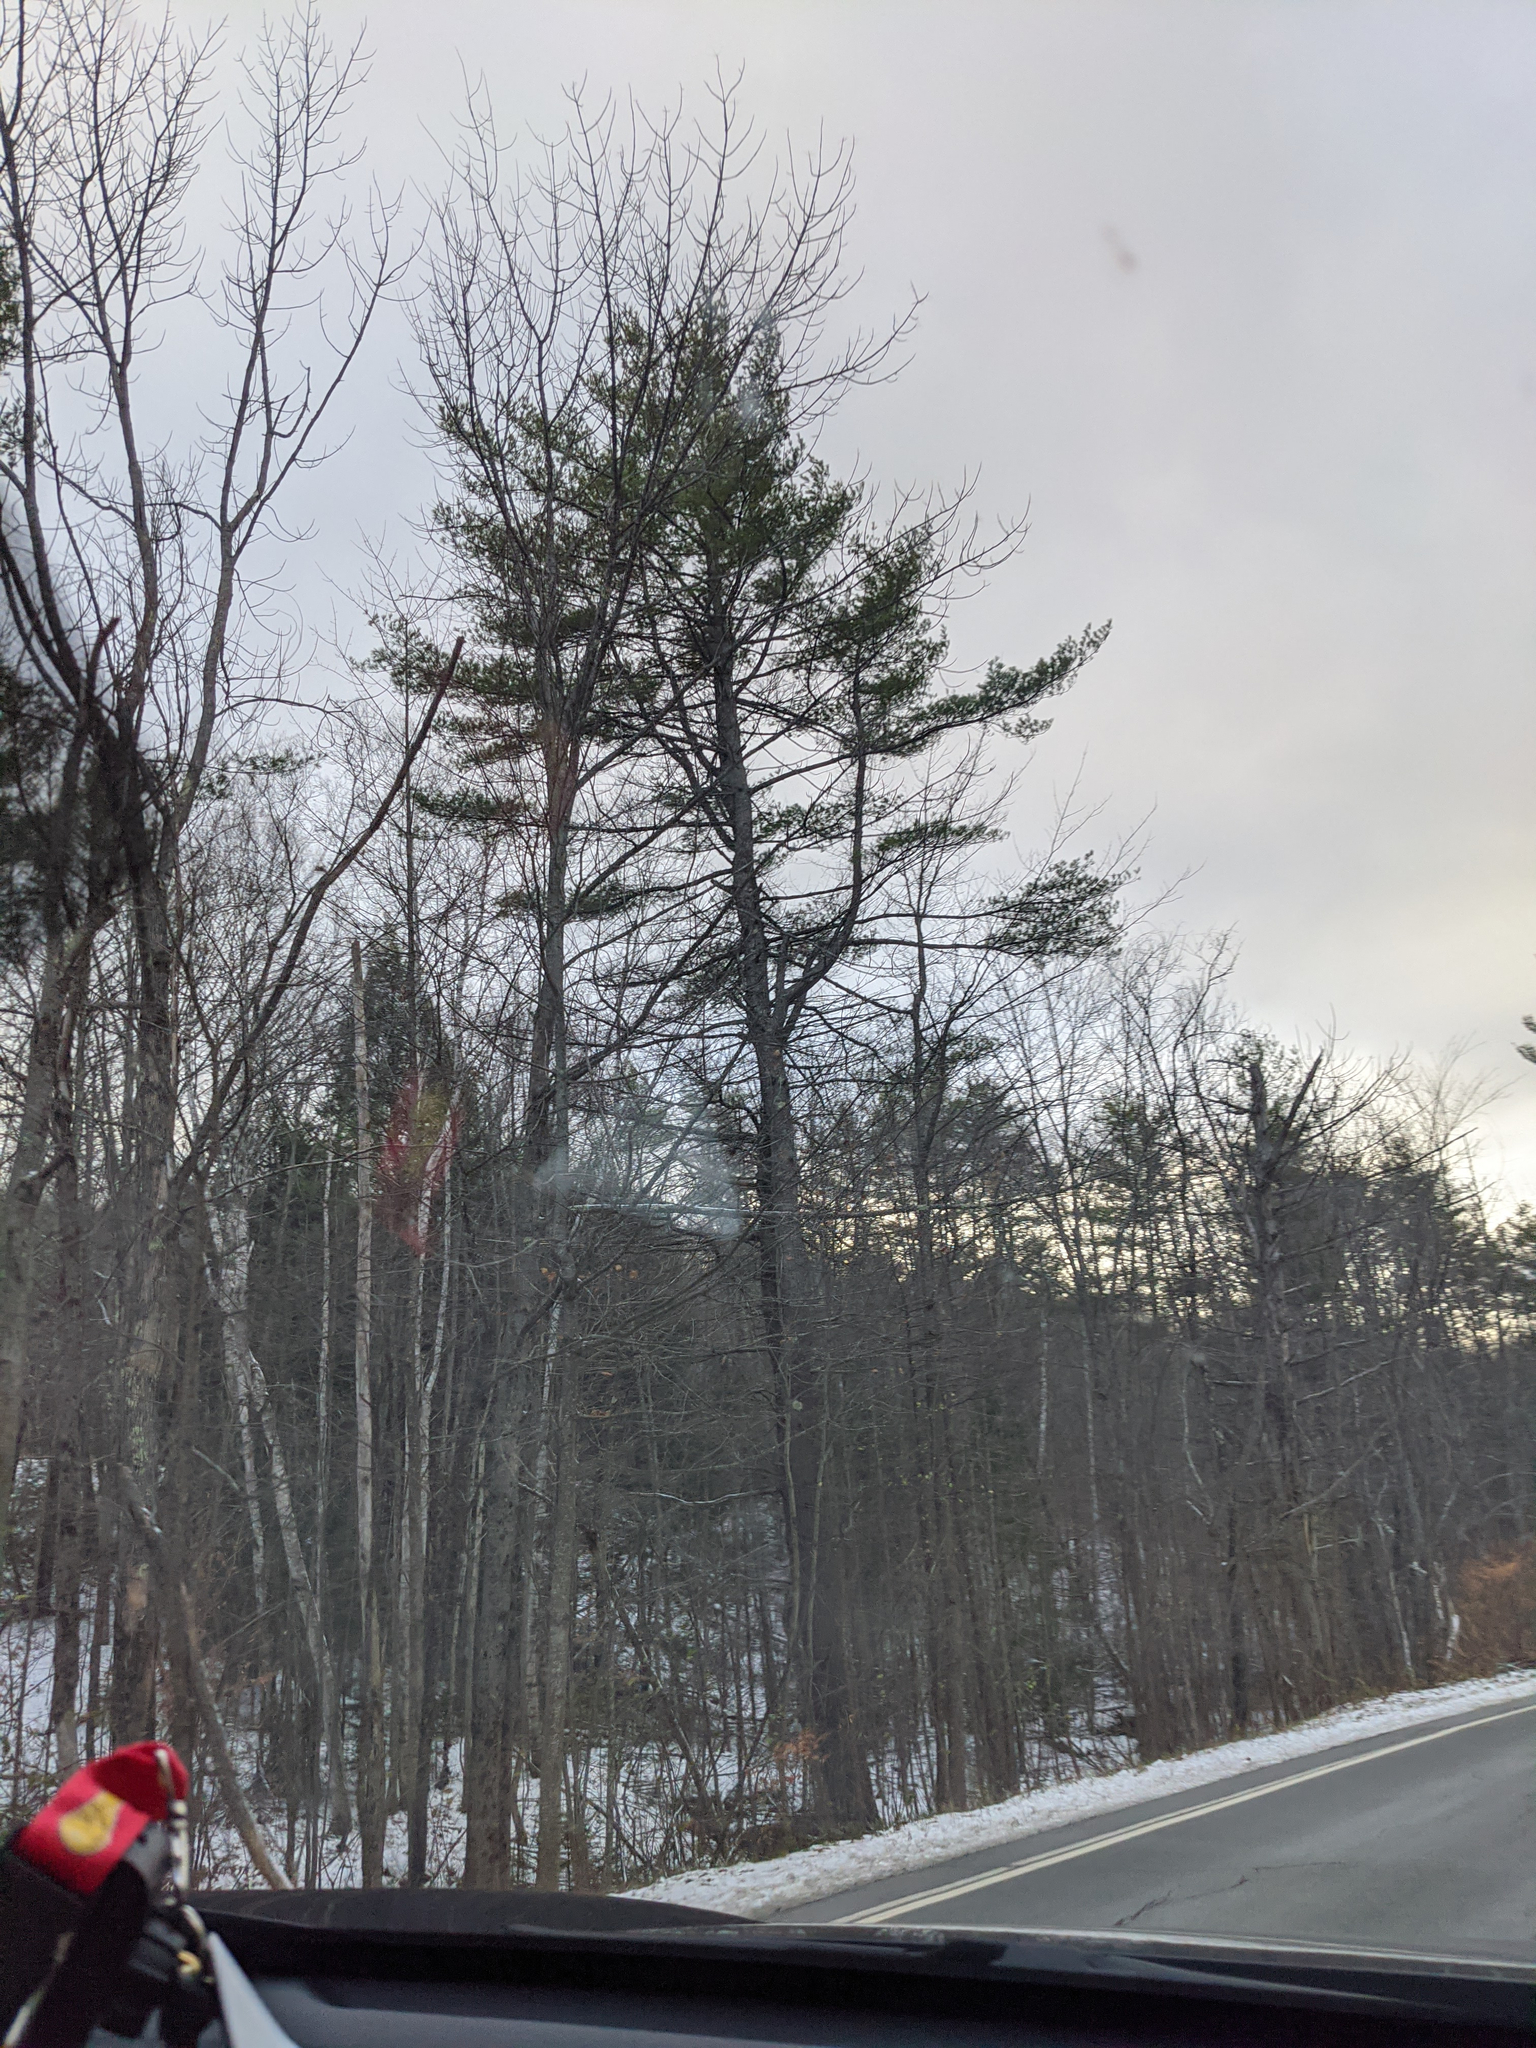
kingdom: Plantae
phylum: Tracheophyta
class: Pinopsida
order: Pinales
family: Pinaceae
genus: Pinus
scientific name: Pinus strobus
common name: Weymouth pine
